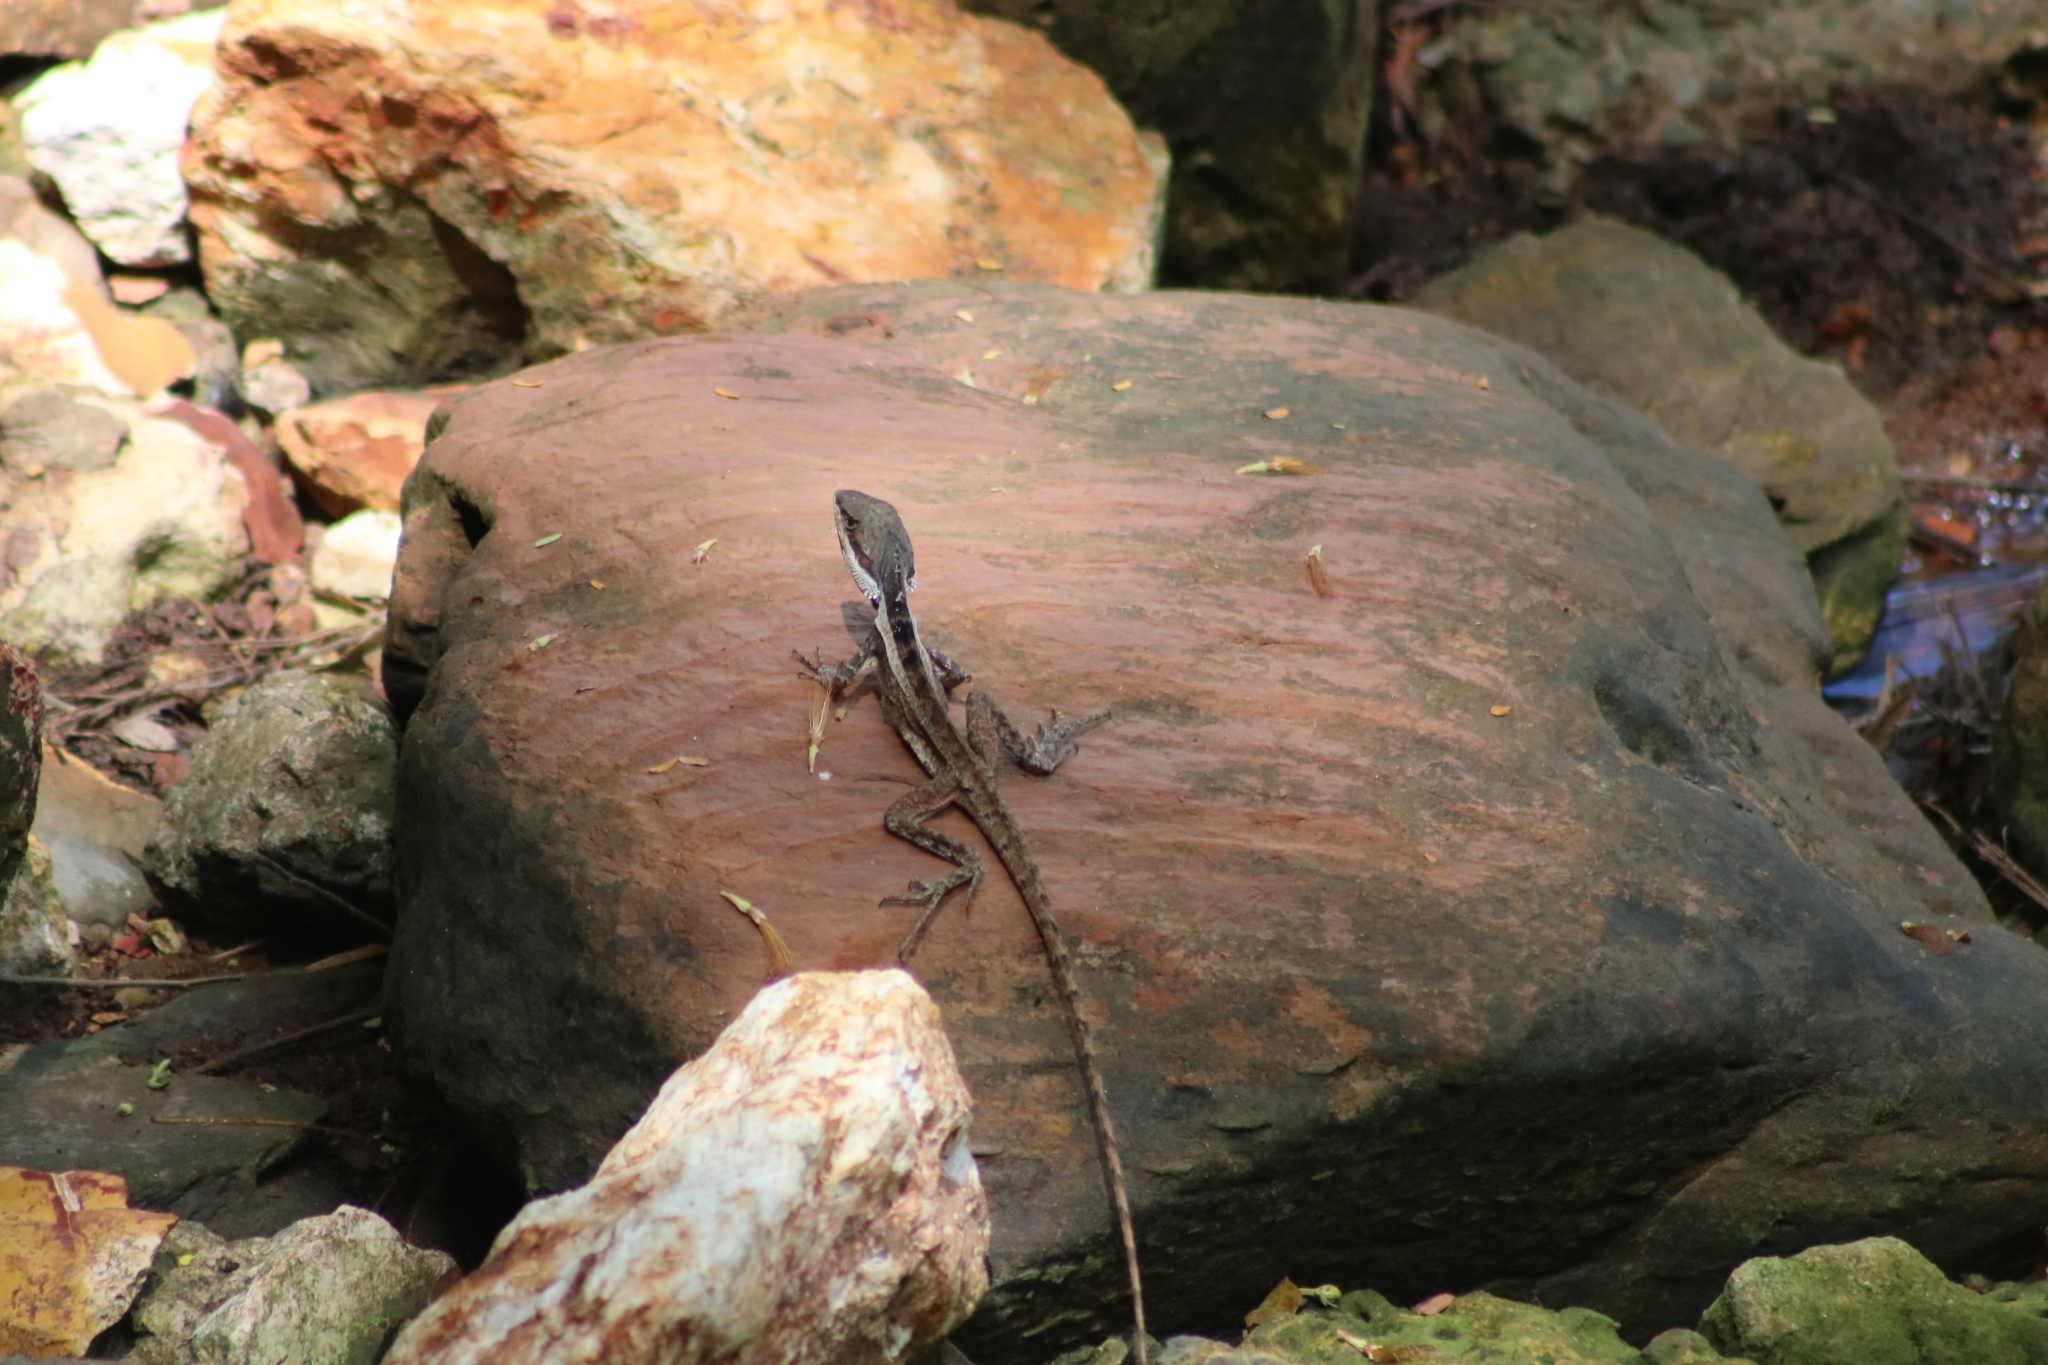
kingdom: Animalia
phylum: Chordata
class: Squamata
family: Agamidae
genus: Tropicagama
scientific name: Tropicagama temporalis
